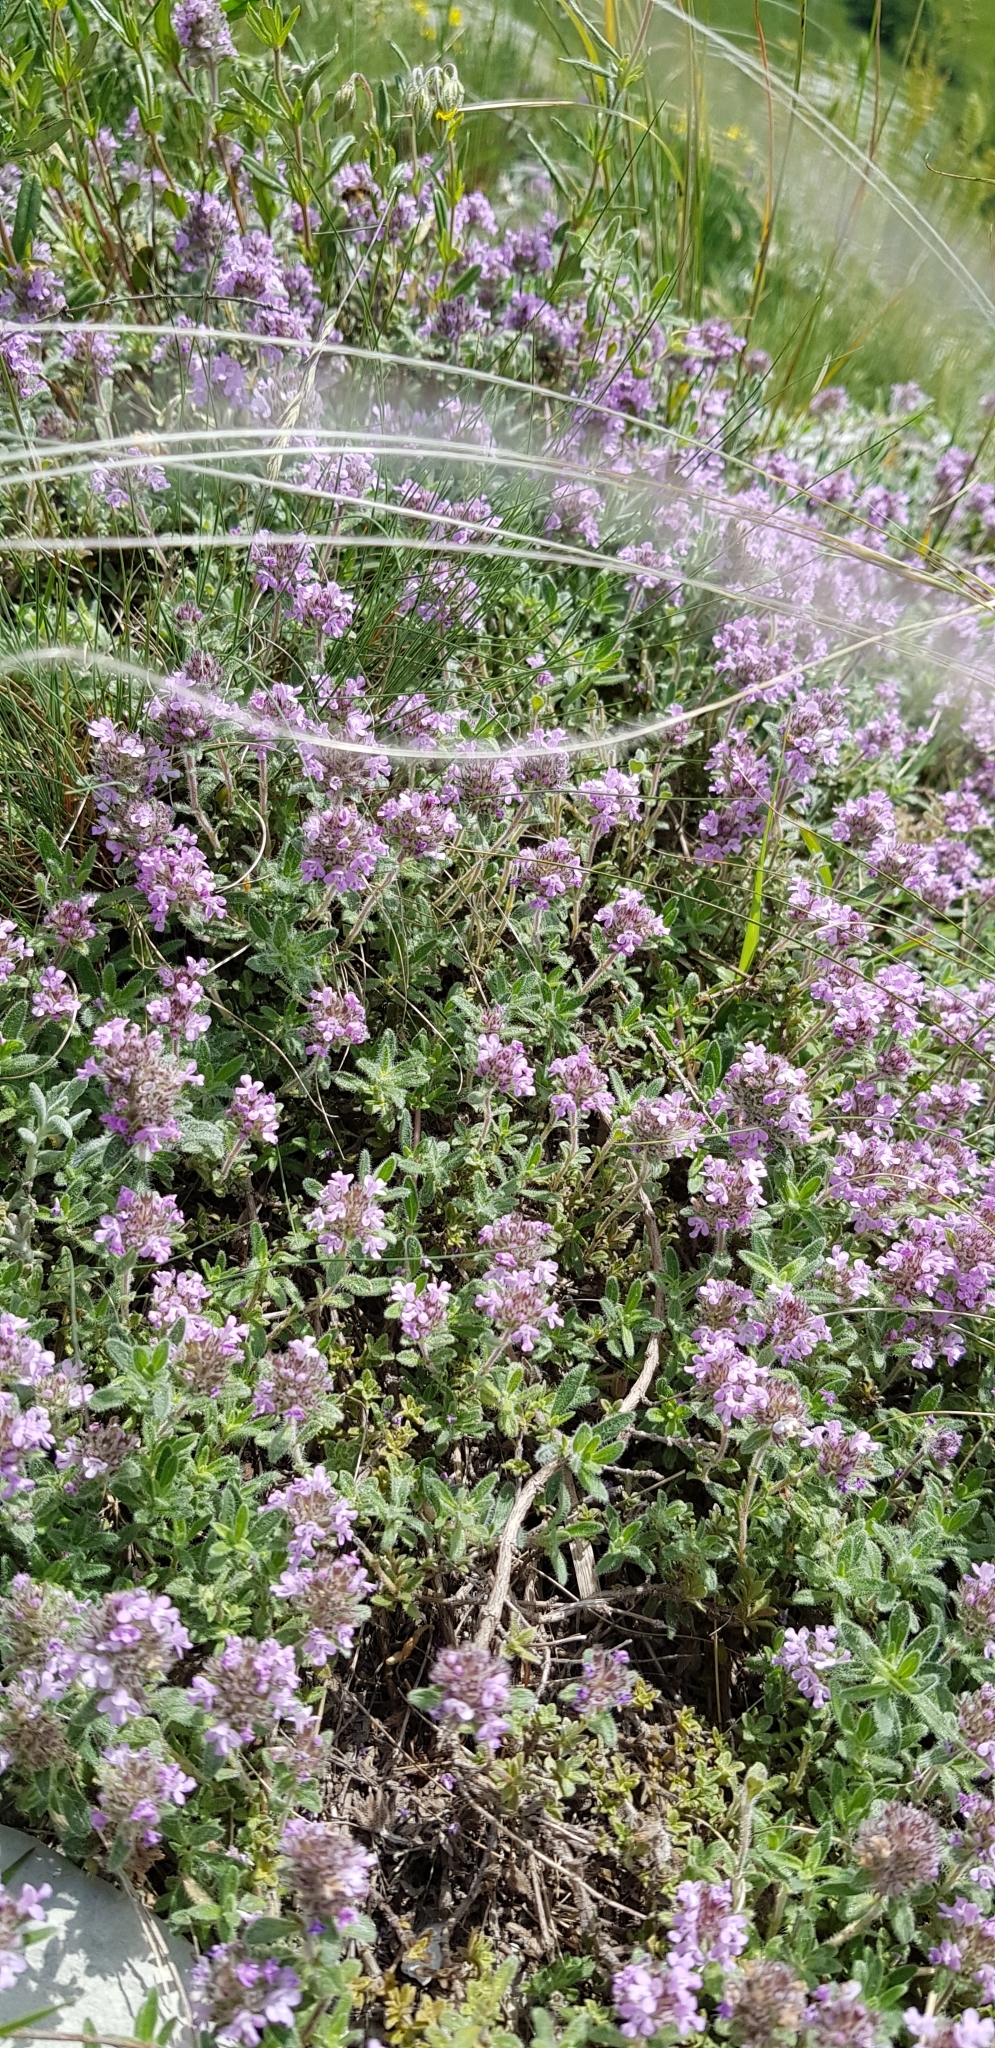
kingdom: Plantae
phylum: Tracheophyta
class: Magnoliopsida
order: Lamiales
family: Lamiaceae
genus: Thymus
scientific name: Thymus markhotensis
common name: Markhotian thyme
